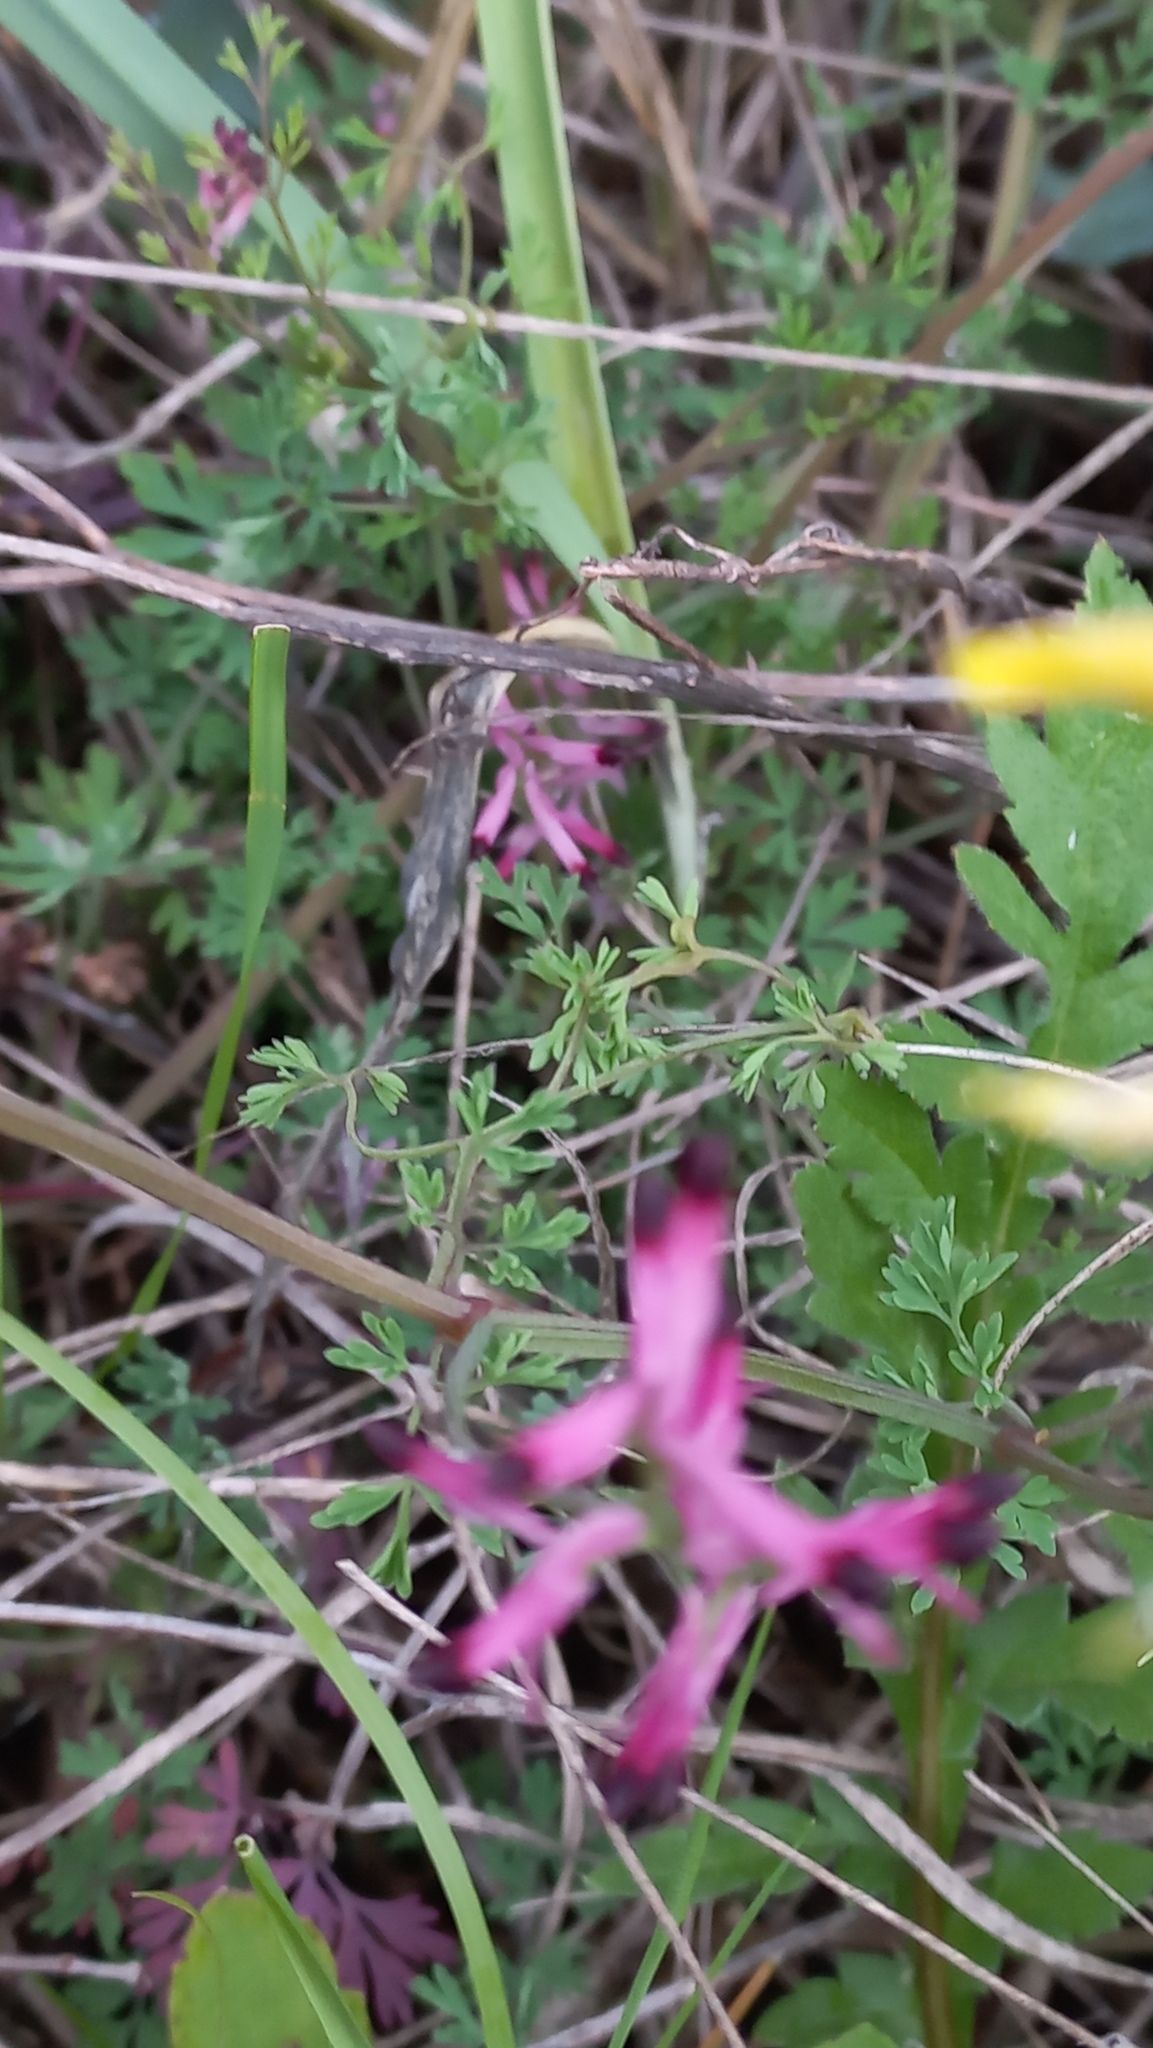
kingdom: Plantae
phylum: Tracheophyta
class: Magnoliopsida
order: Ranunculales
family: Papaveraceae
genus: Fumaria
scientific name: Fumaria officinalis
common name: Common fumitory
